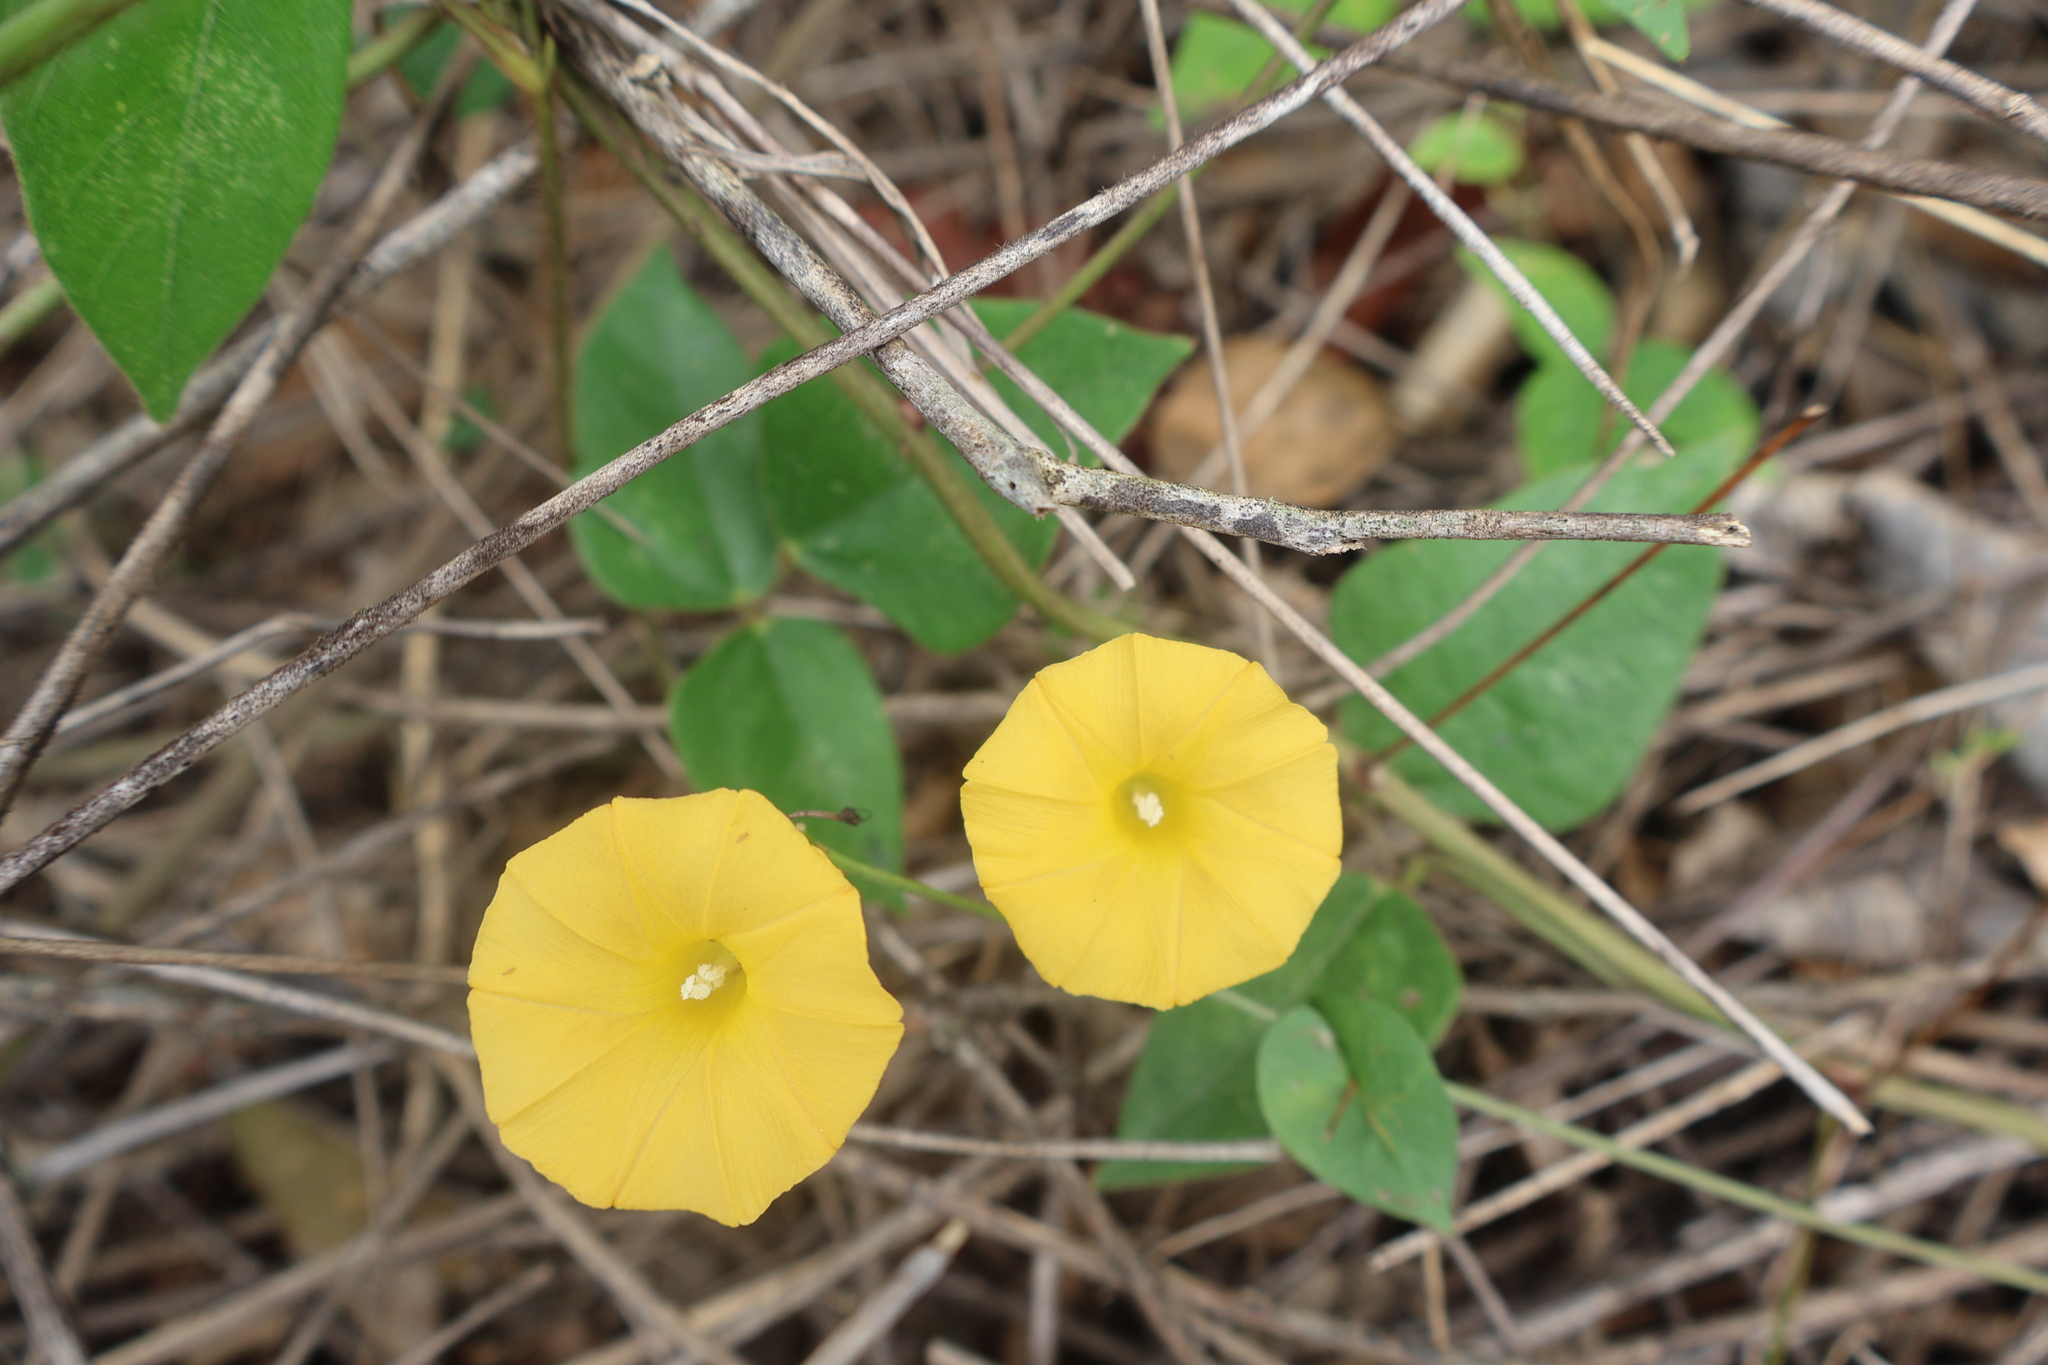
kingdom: Plantae
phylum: Tracheophyta
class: Magnoliopsida
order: Solanales
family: Convolvulaceae
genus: Ipomoea
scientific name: Ipomoea microsepala
